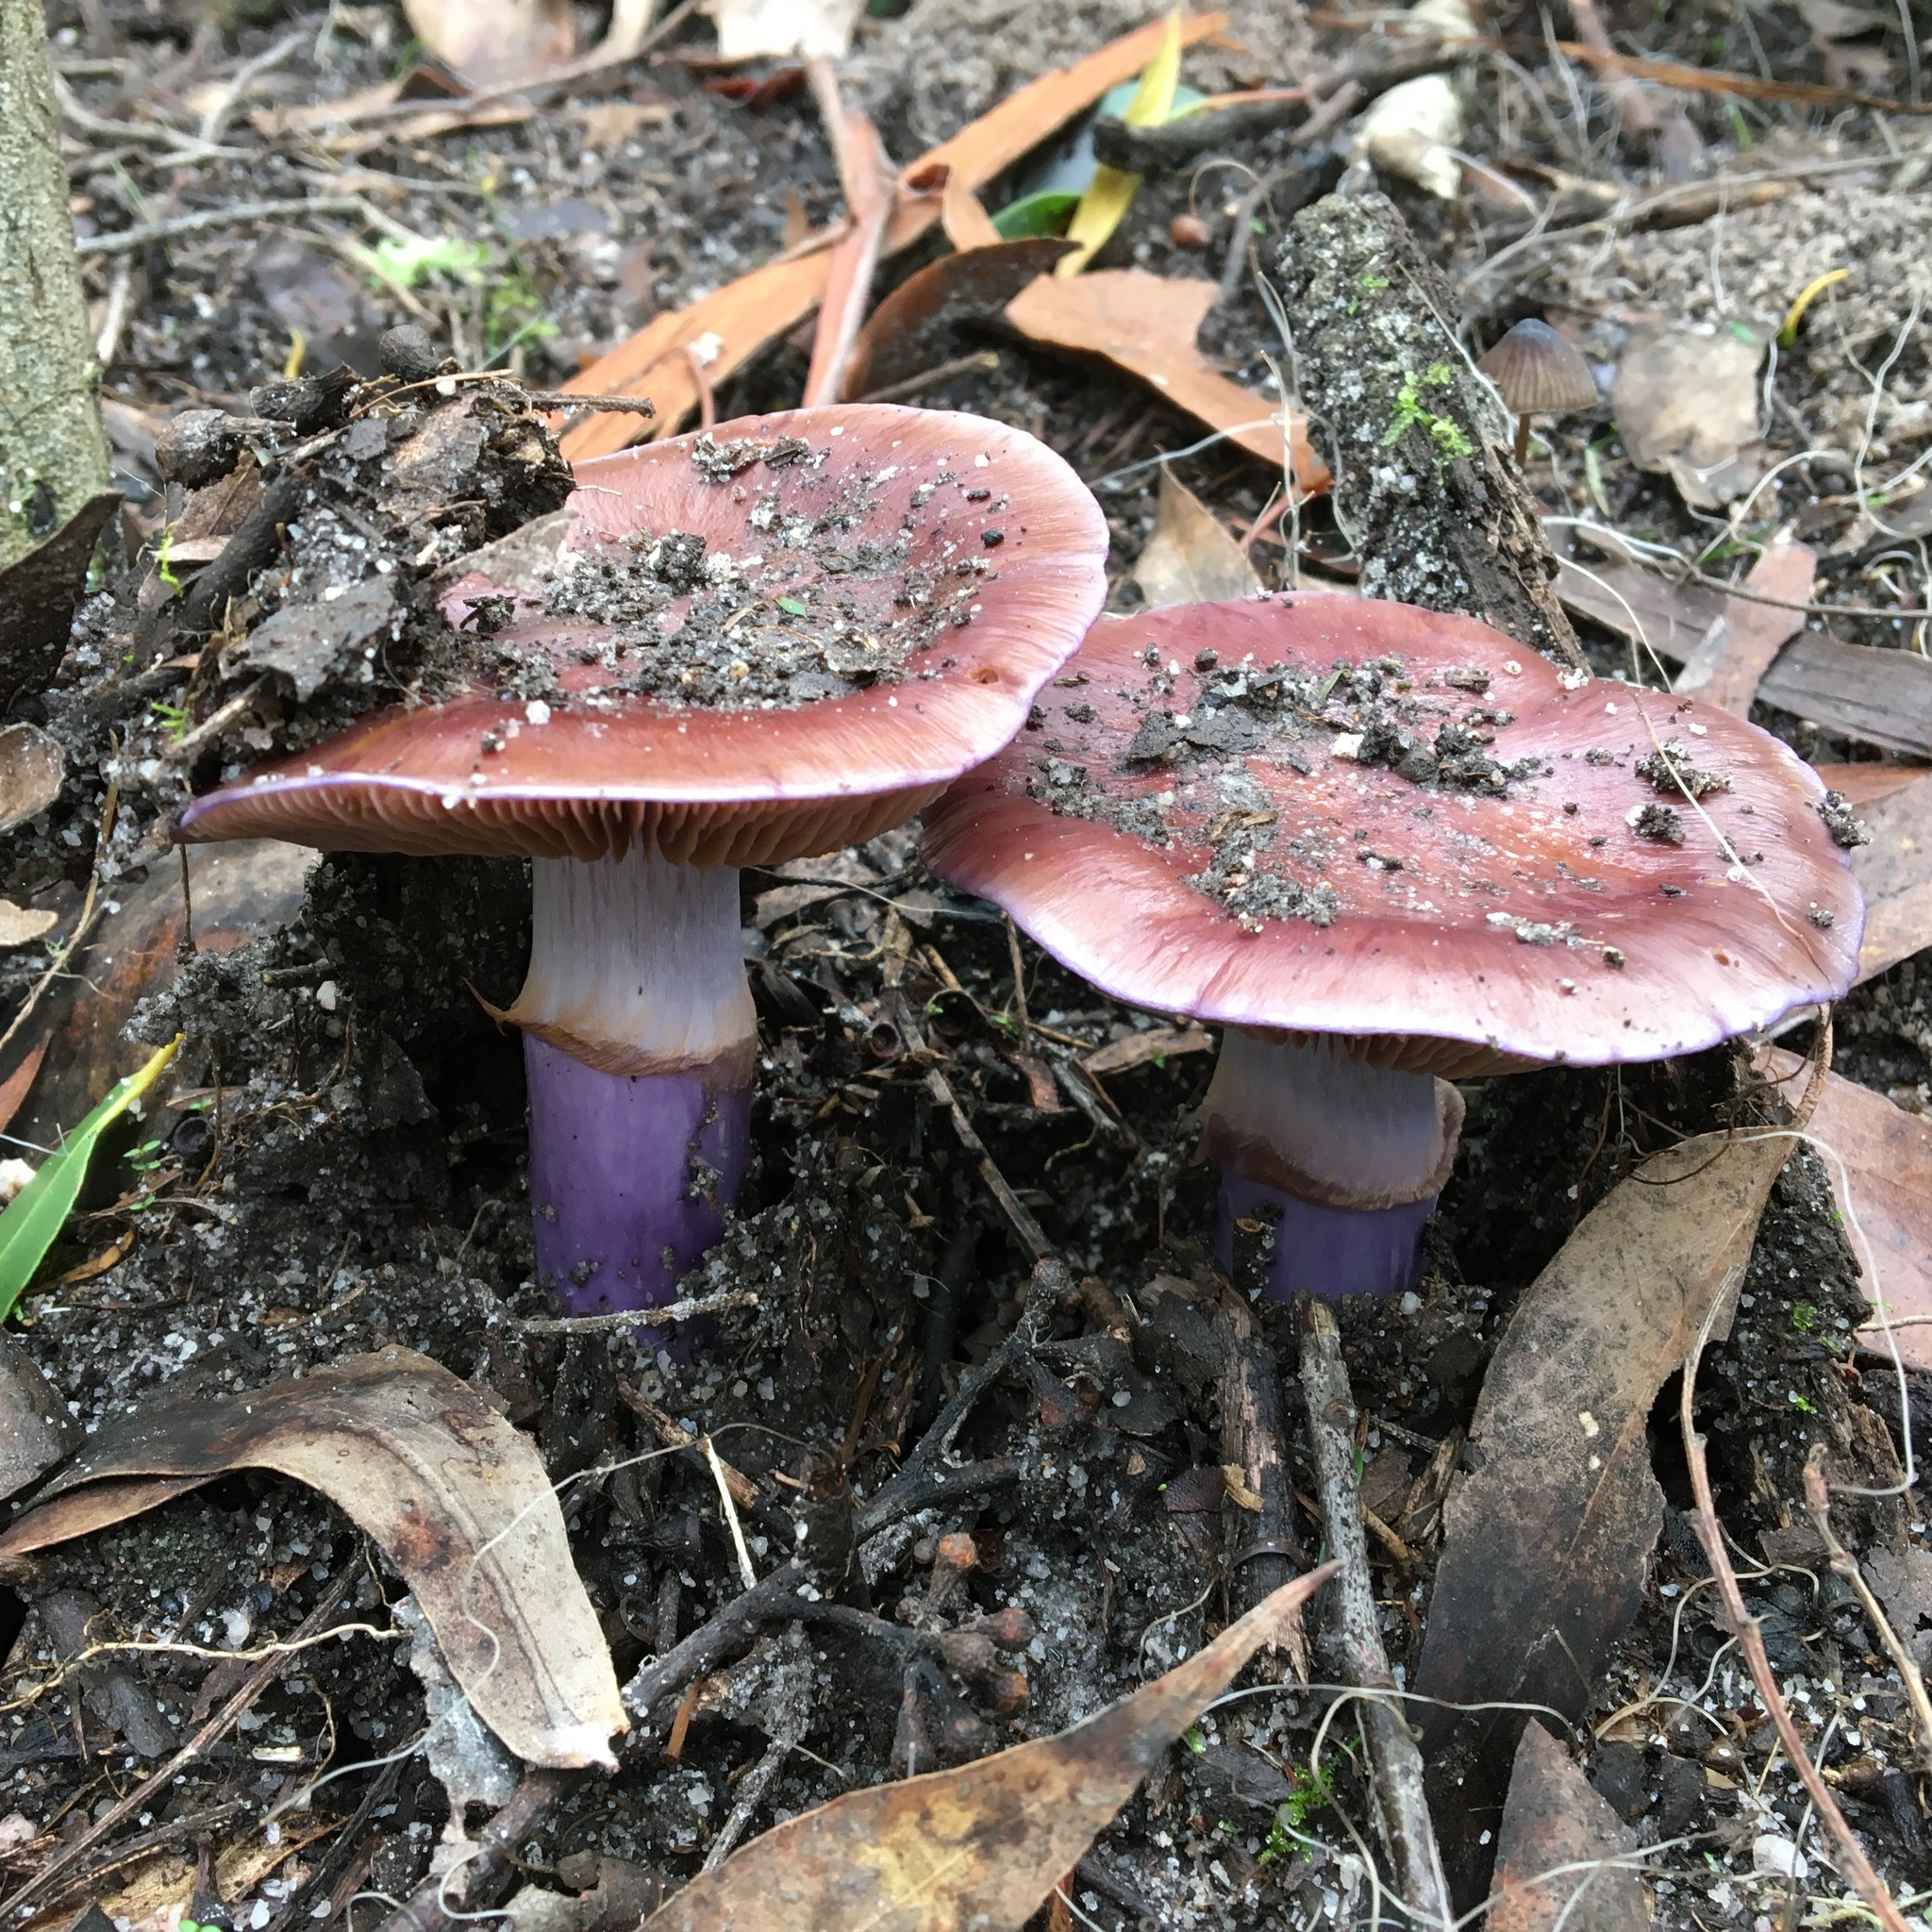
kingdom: Fungi
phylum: Basidiomycota
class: Agaricomycetes
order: Agaricales
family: Cortinariaceae
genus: Cortinarius
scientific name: Cortinarius archeri
